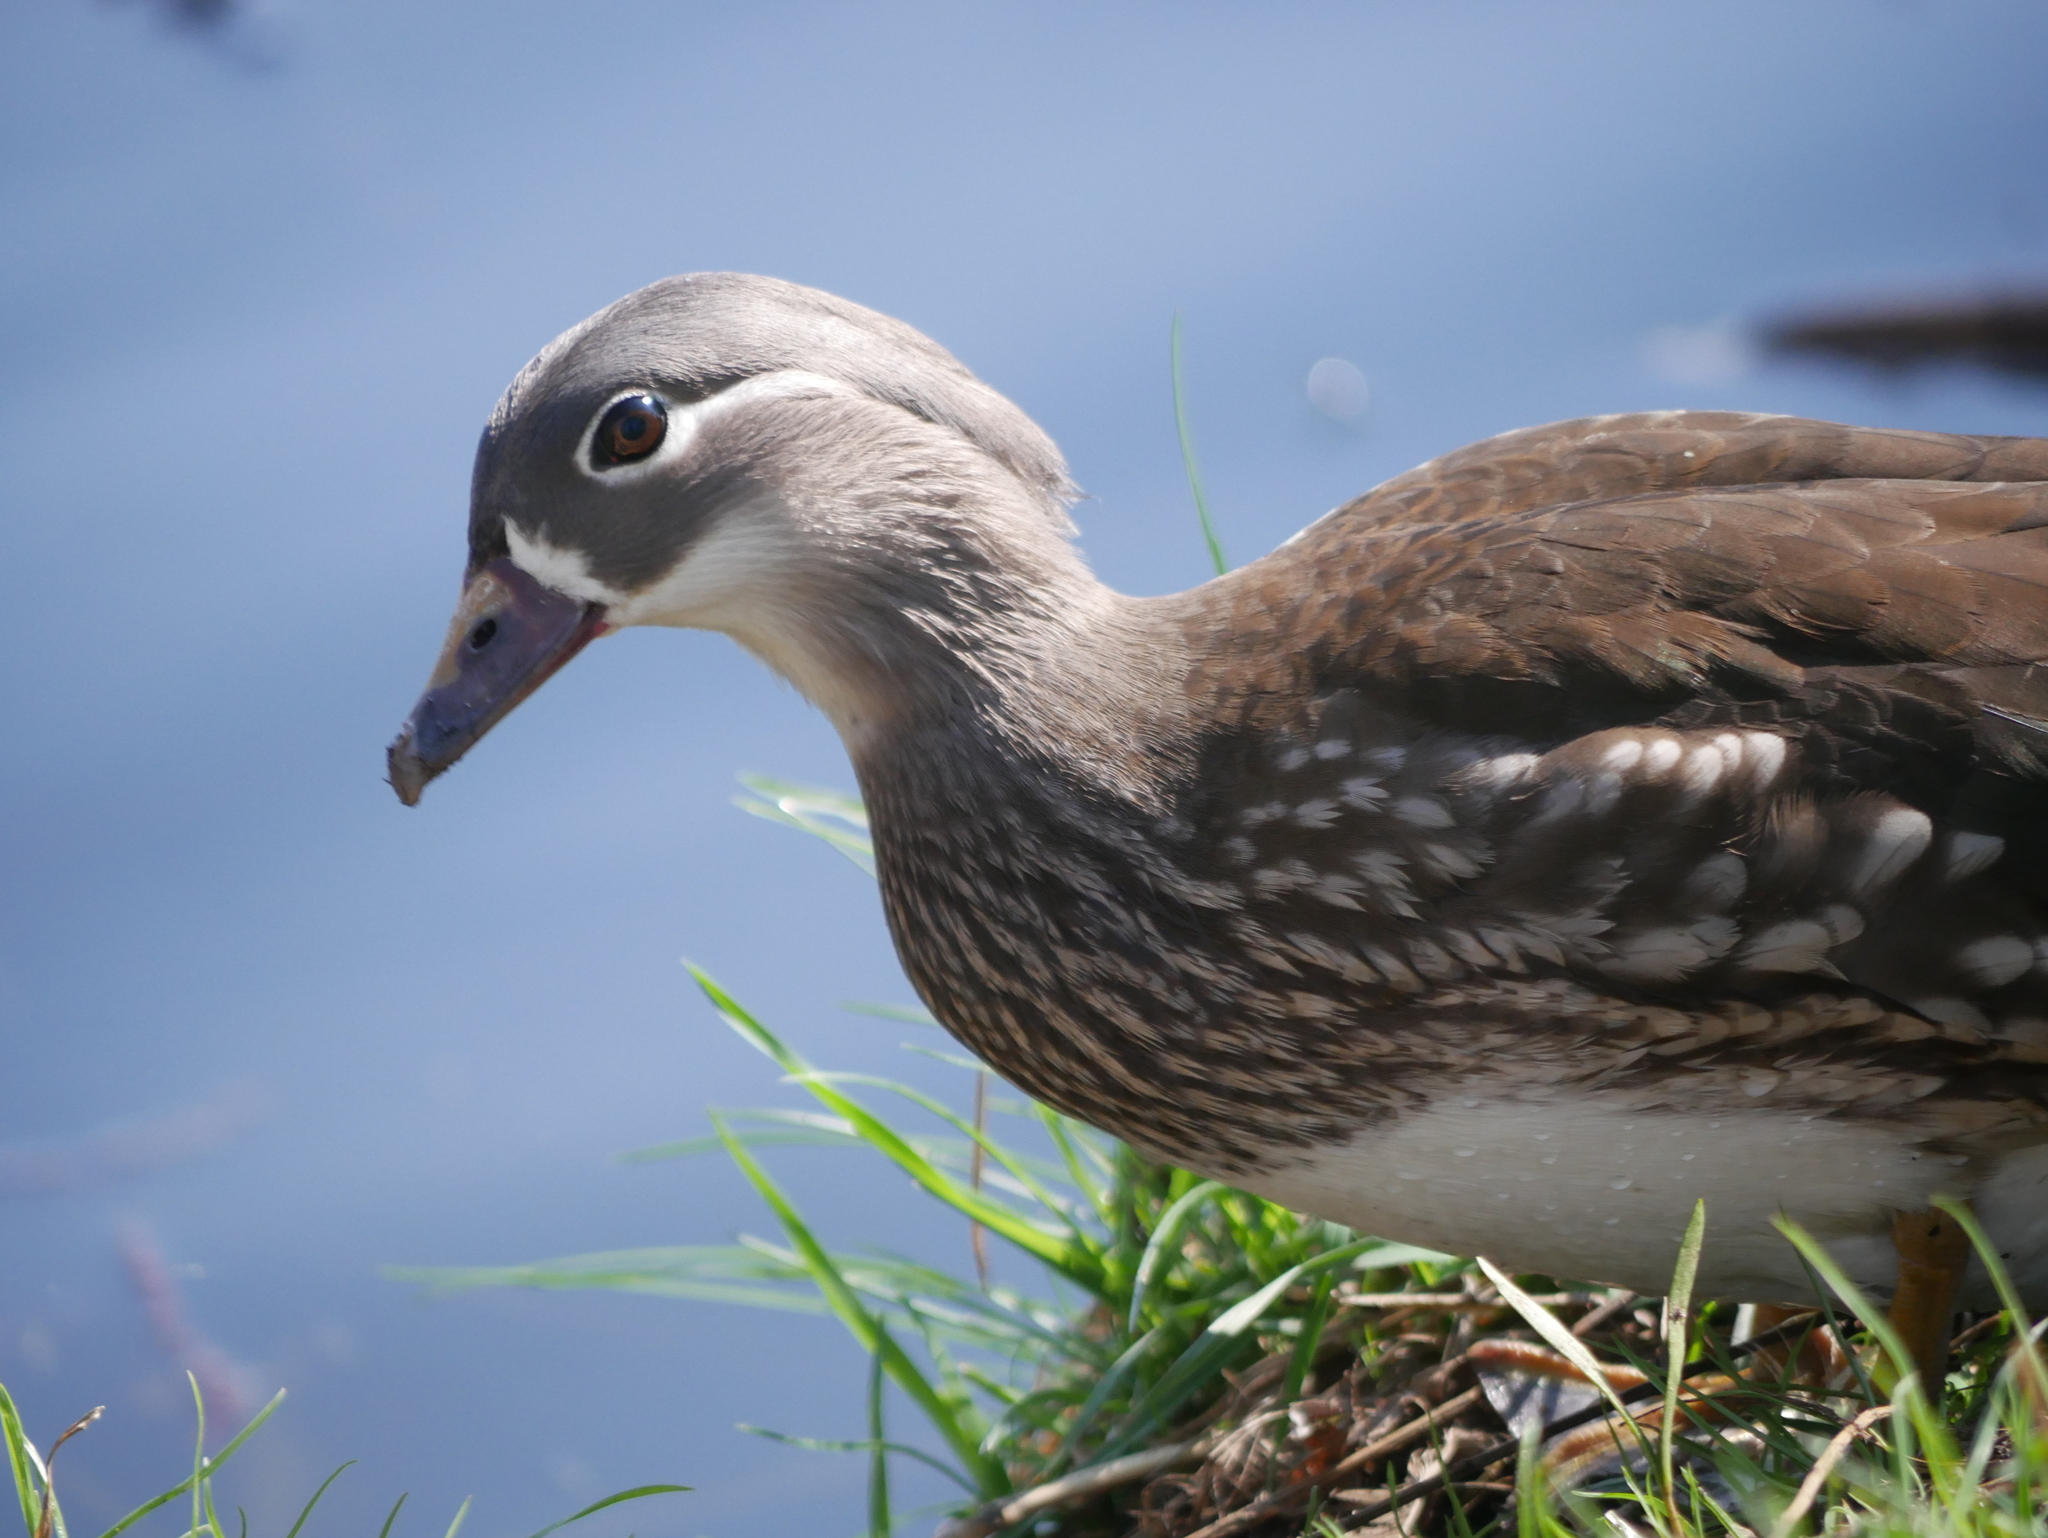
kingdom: Animalia
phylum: Chordata
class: Aves
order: Anseriformes
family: Anatidae
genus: Aix
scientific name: Aix galericulata
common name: Mandarin duck
